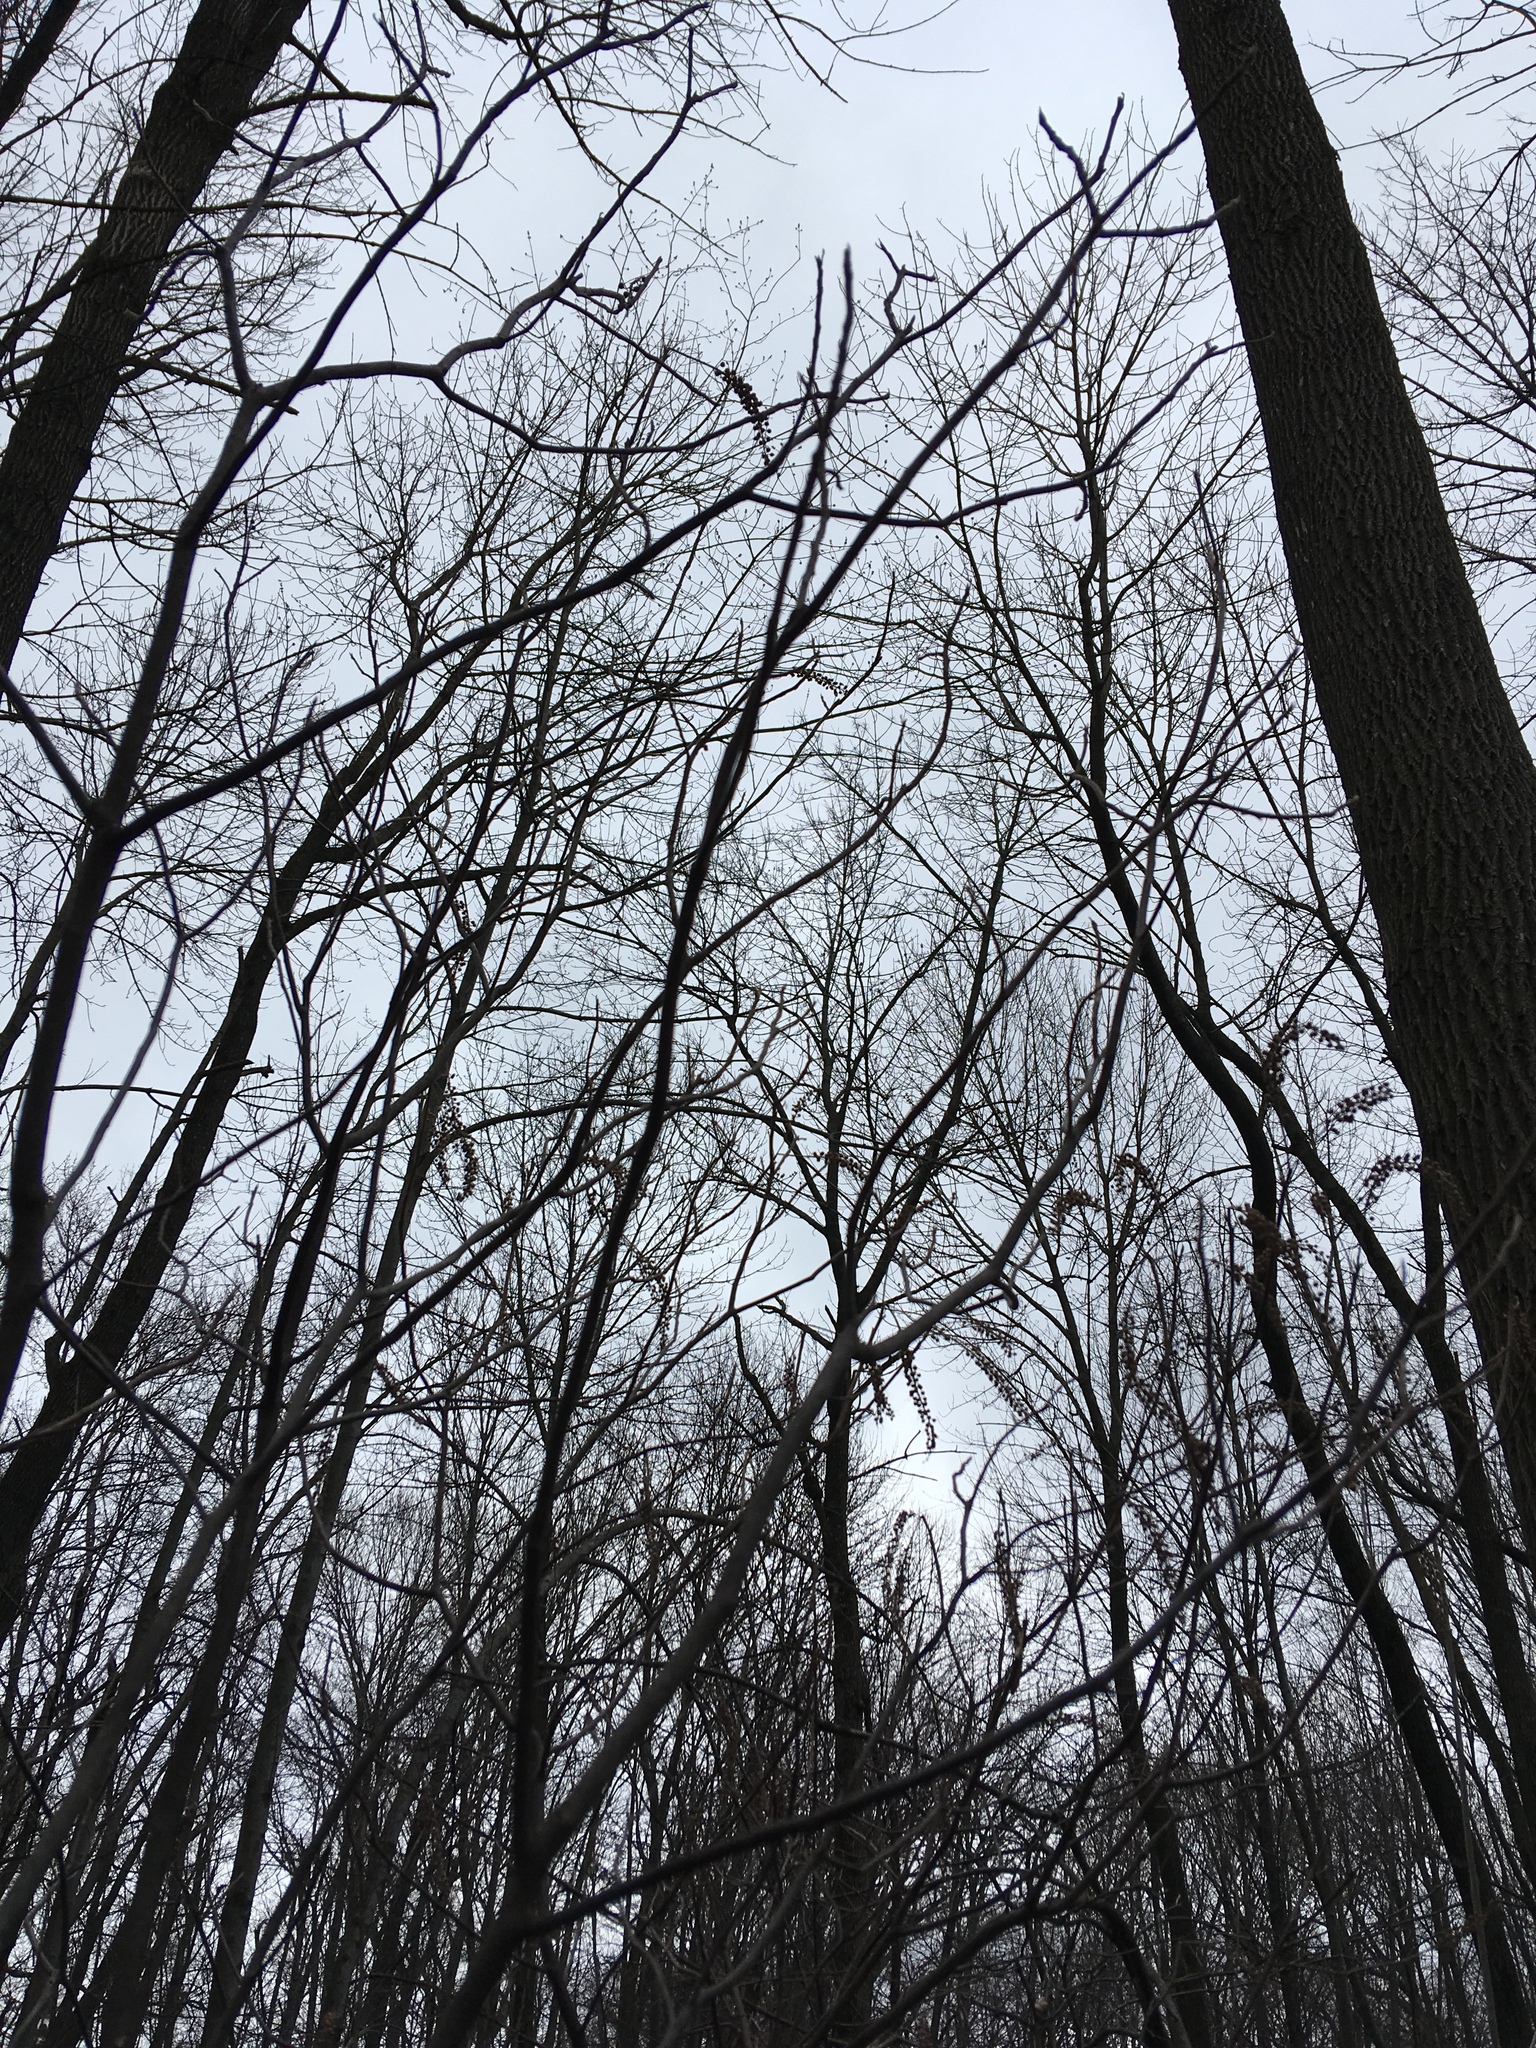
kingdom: Plantae
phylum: Tracheophyta
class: Magnoliopsida
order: Ericales
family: Clethraceae
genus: Clethra
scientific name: Clethra alnifolia
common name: Sweet pepperbush
